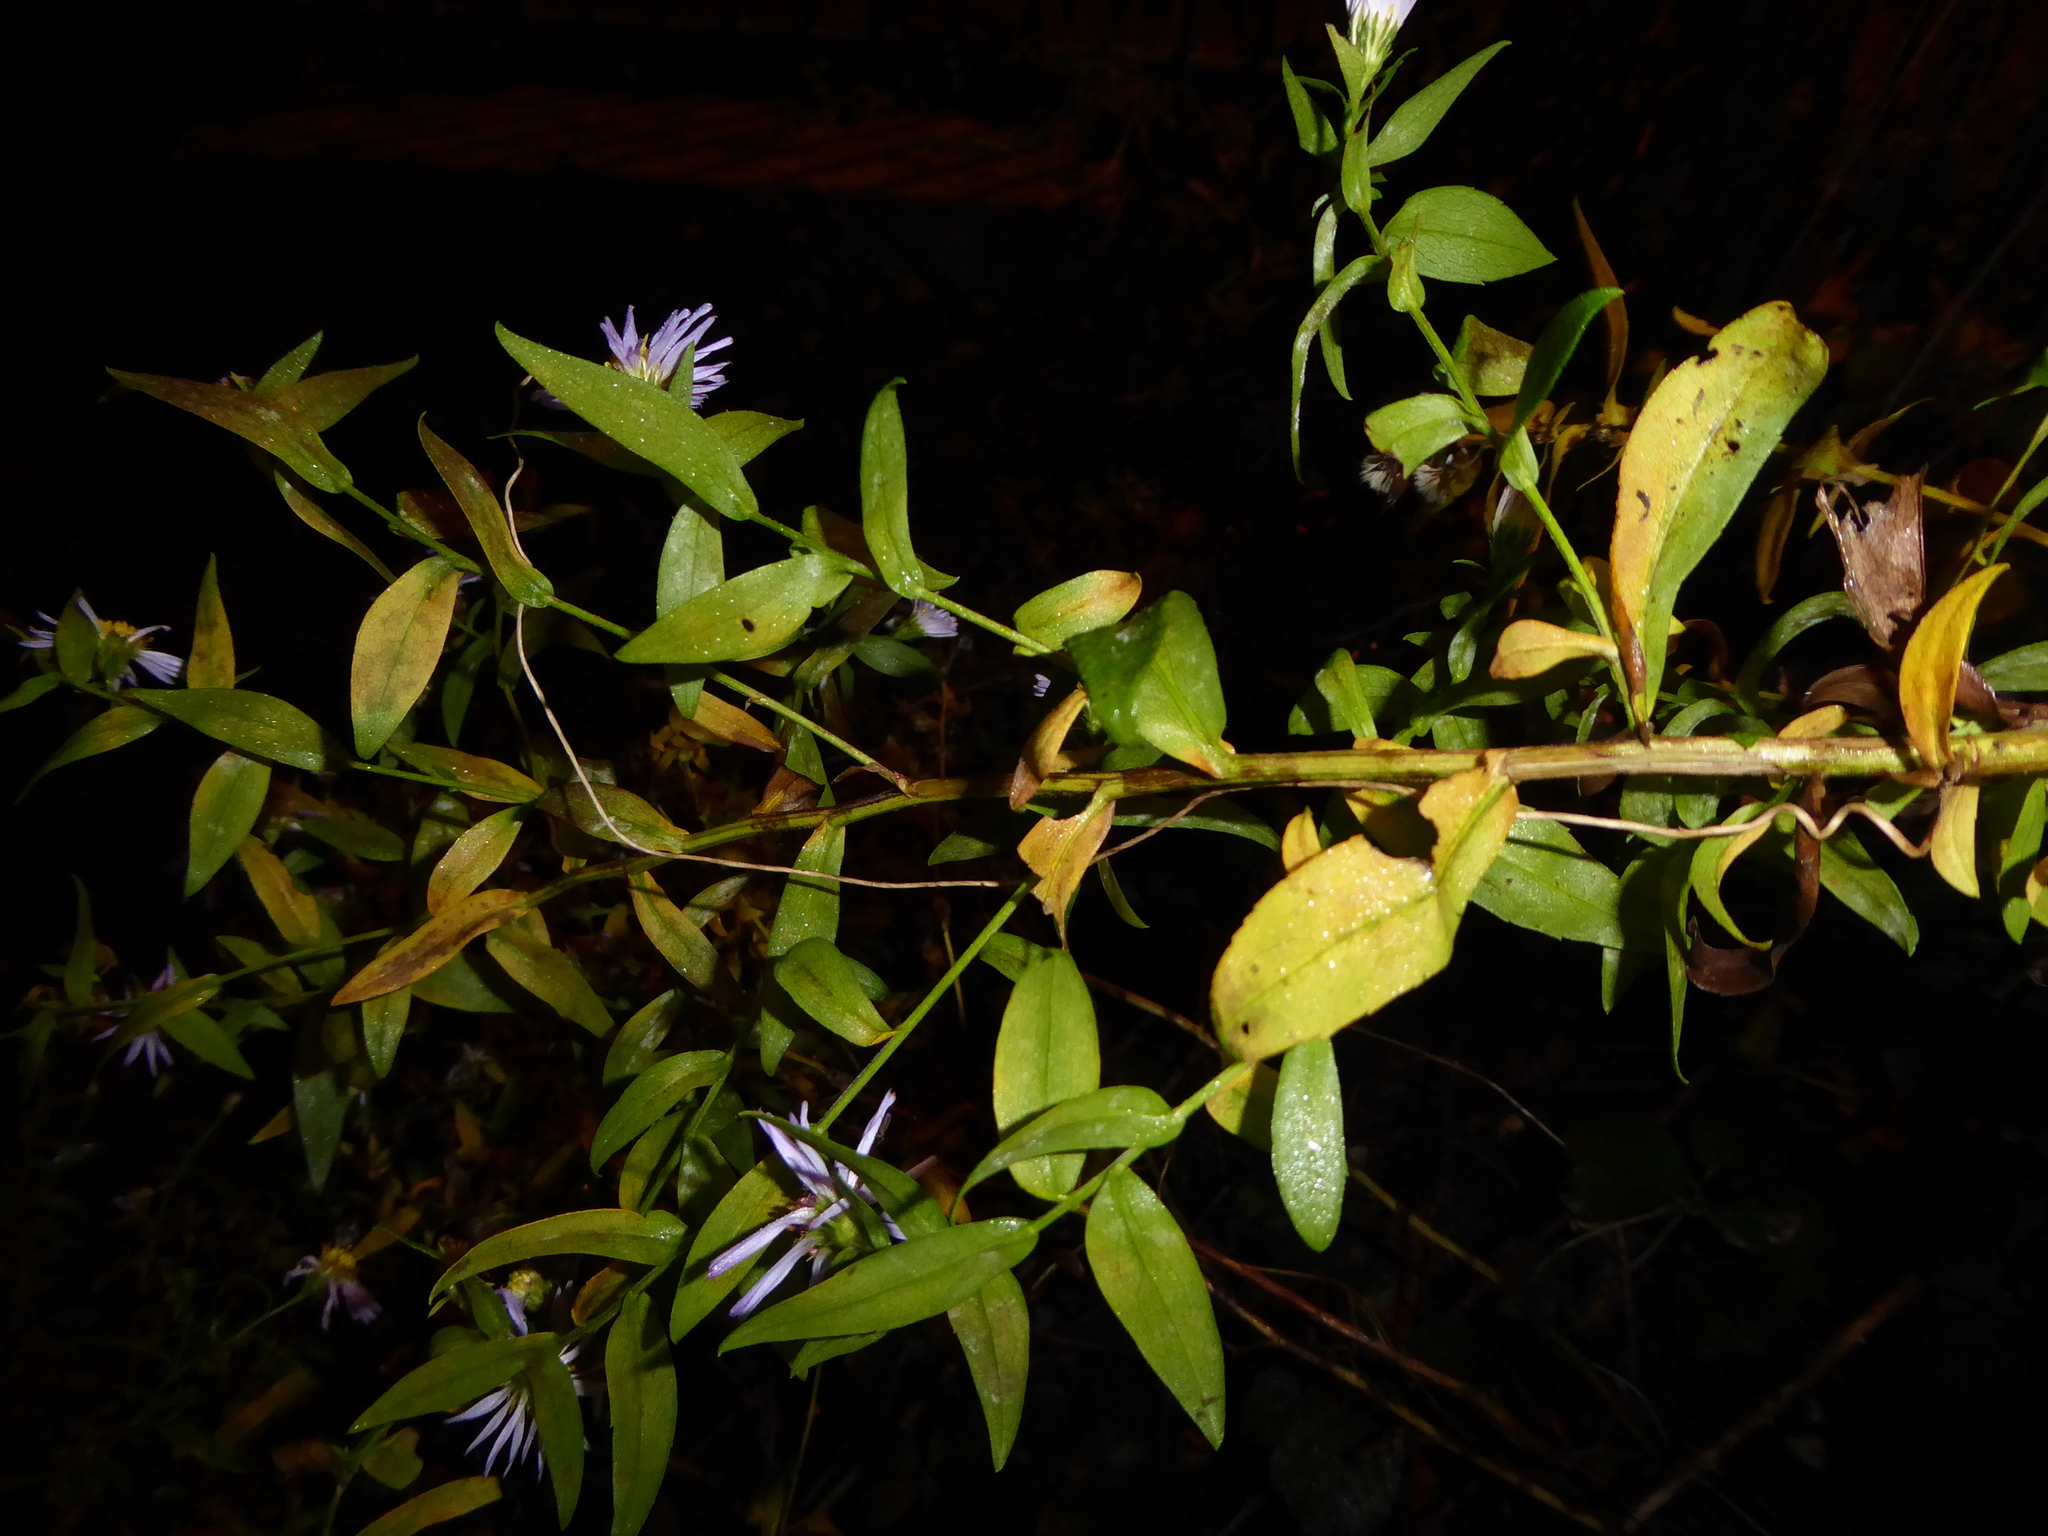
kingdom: Plantae
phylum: Tracheophyta
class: Magnoliopsida
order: Asterales
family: Asteraceae
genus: Symphyotrichum
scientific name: Symphyotrichum
